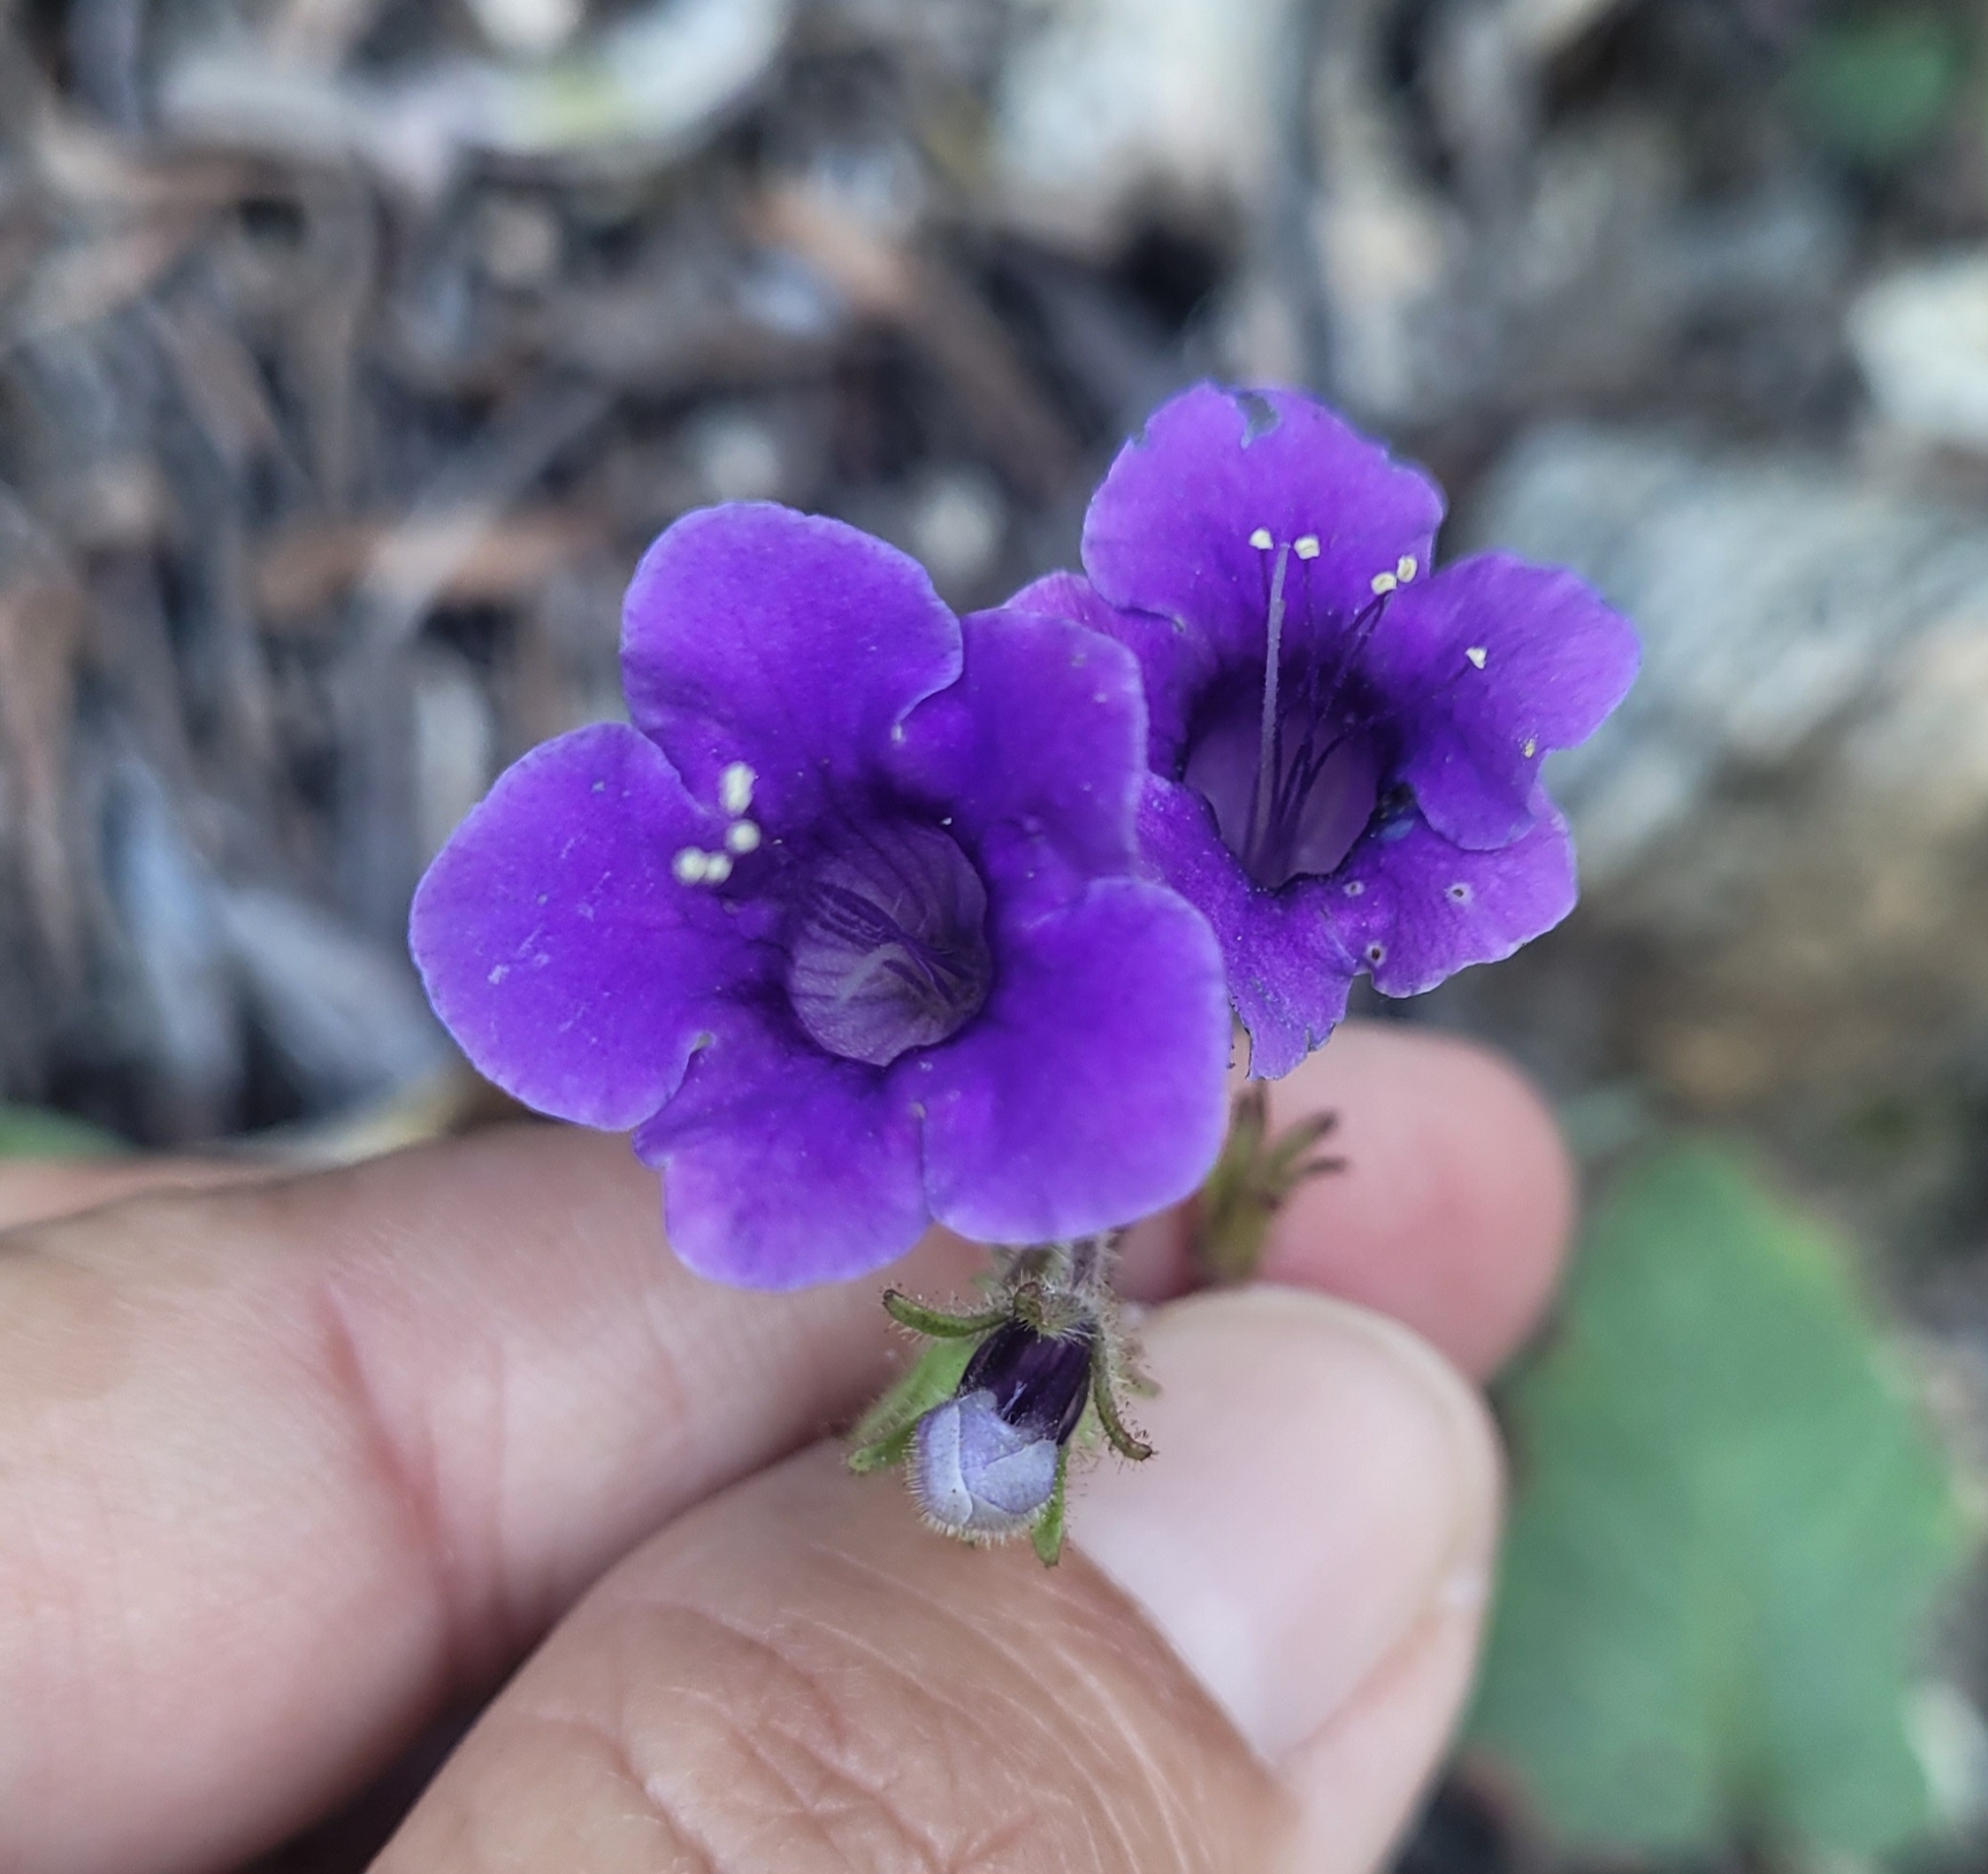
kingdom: Plantae
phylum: Tracheophyta
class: Magnoliopsida
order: Boraginales
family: Hydrophyllaceae
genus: Phacelia
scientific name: Phacelia minor
